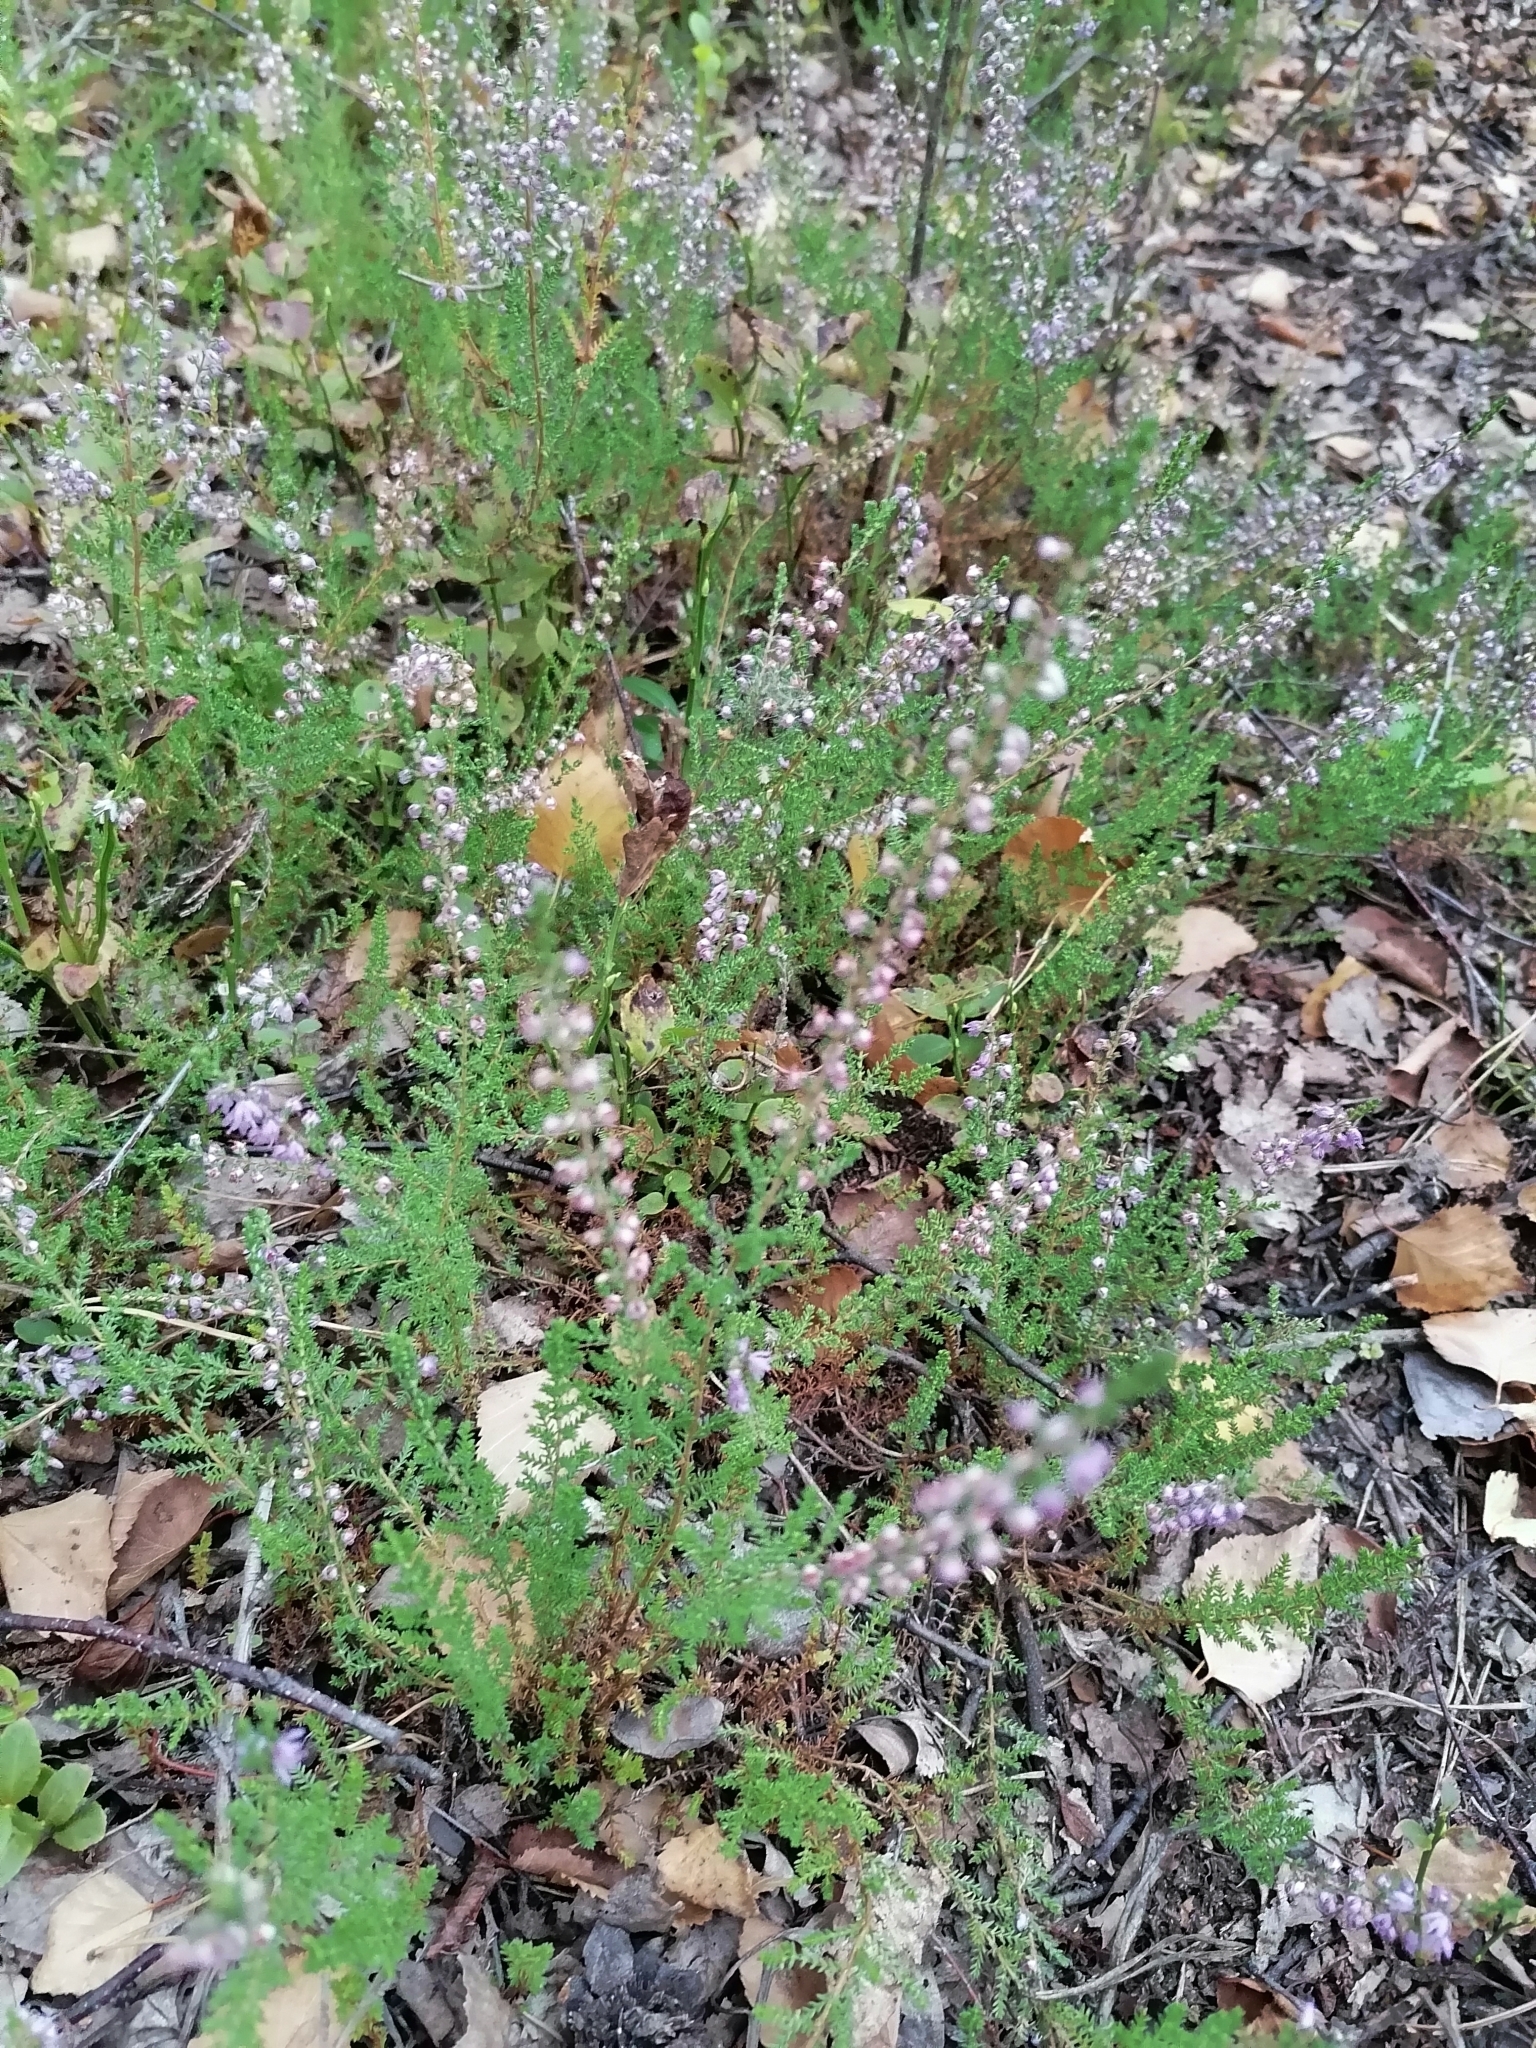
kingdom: Plantae
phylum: Tracheophyta
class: Magnoliopsida
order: Ericales
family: Ericaceae
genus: Calluna
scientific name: Calluna vulgaris
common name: Heather
